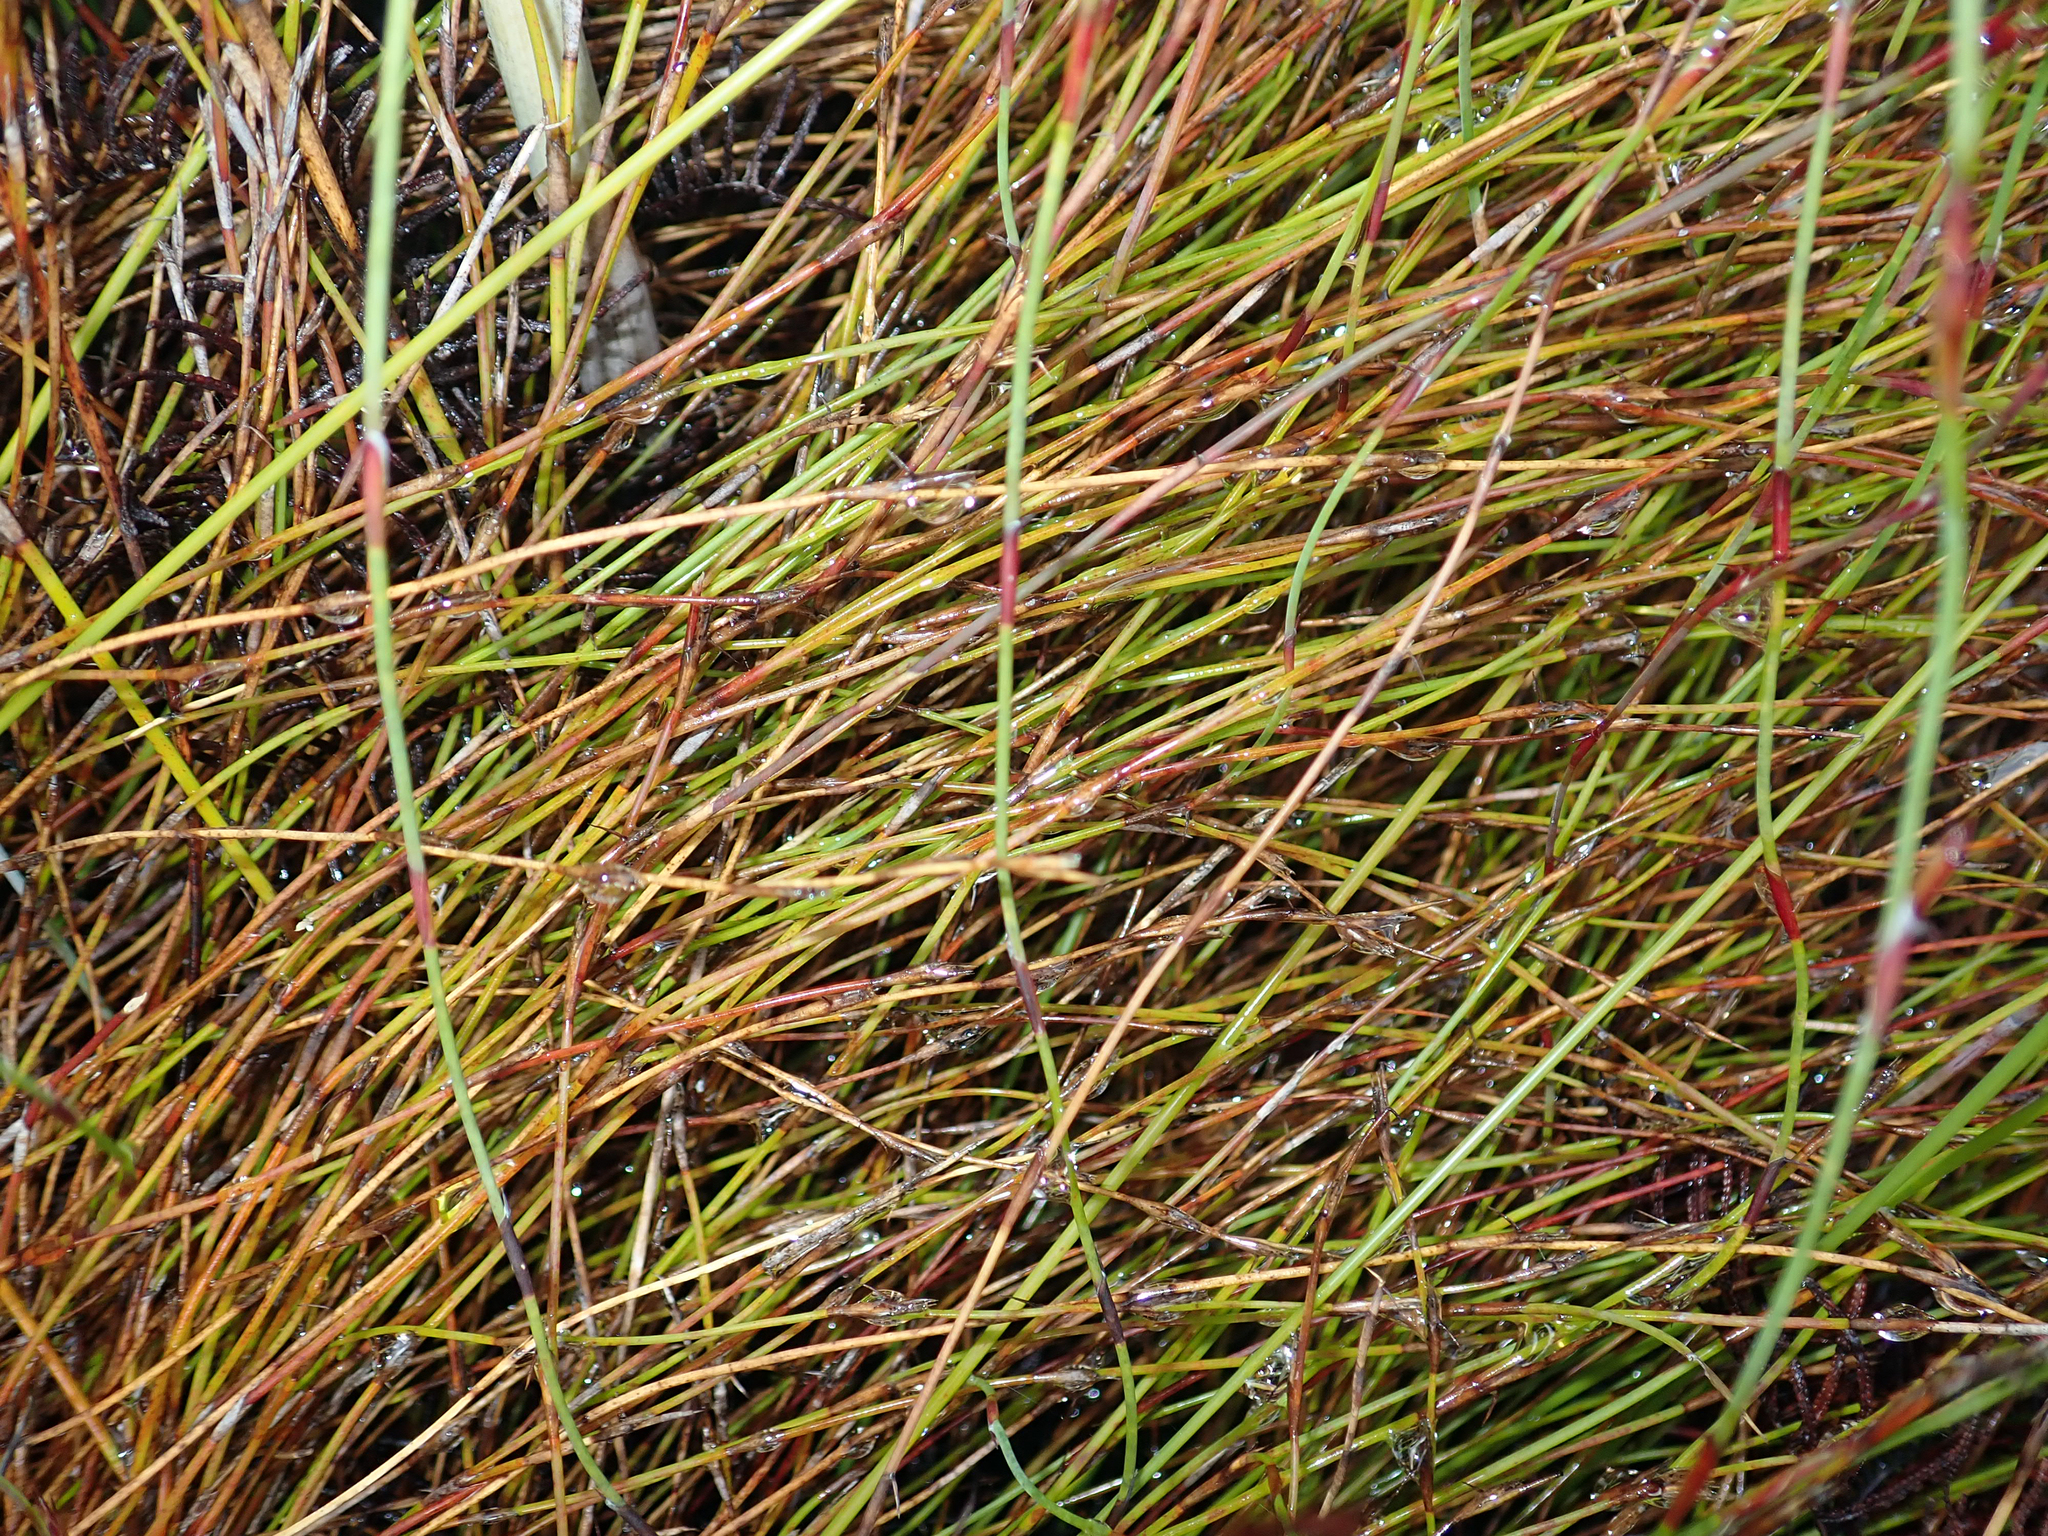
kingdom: Plantae
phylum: Tracheophyta
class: Liliopsida
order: Poales
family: Restionaceae
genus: Empodisma
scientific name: Empodisma minus
